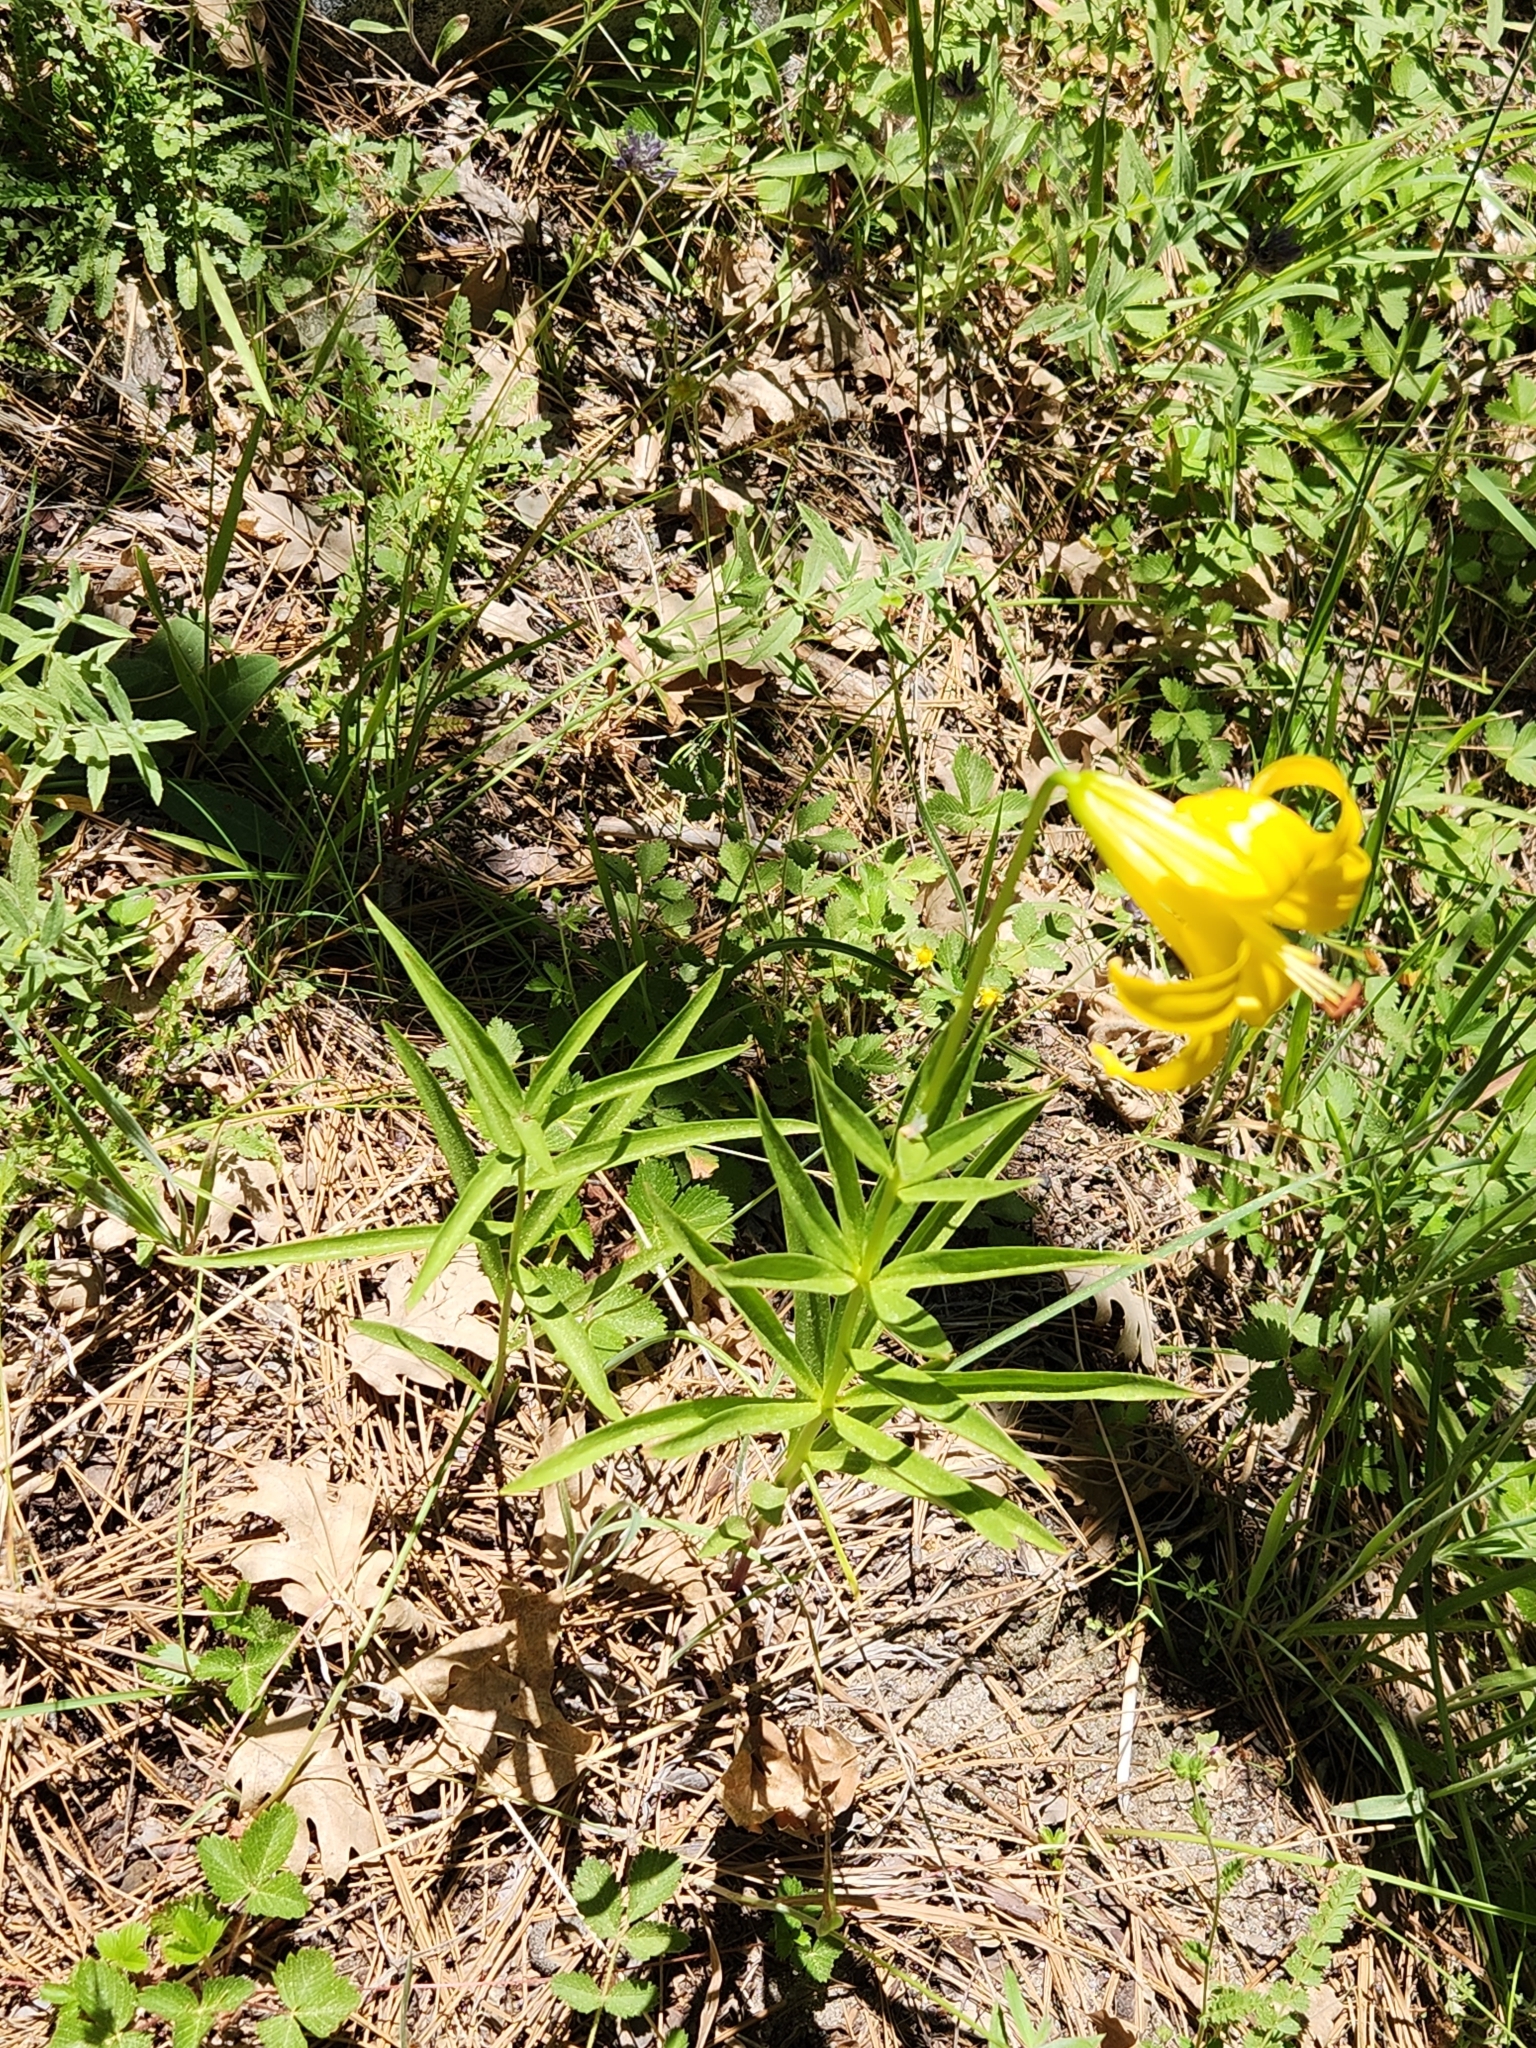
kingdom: Plantae
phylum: Tracheophyta
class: Liliopsida
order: Liliales
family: Liliaceae
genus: Lilium
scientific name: Lilium parryi
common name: Lemon lily
